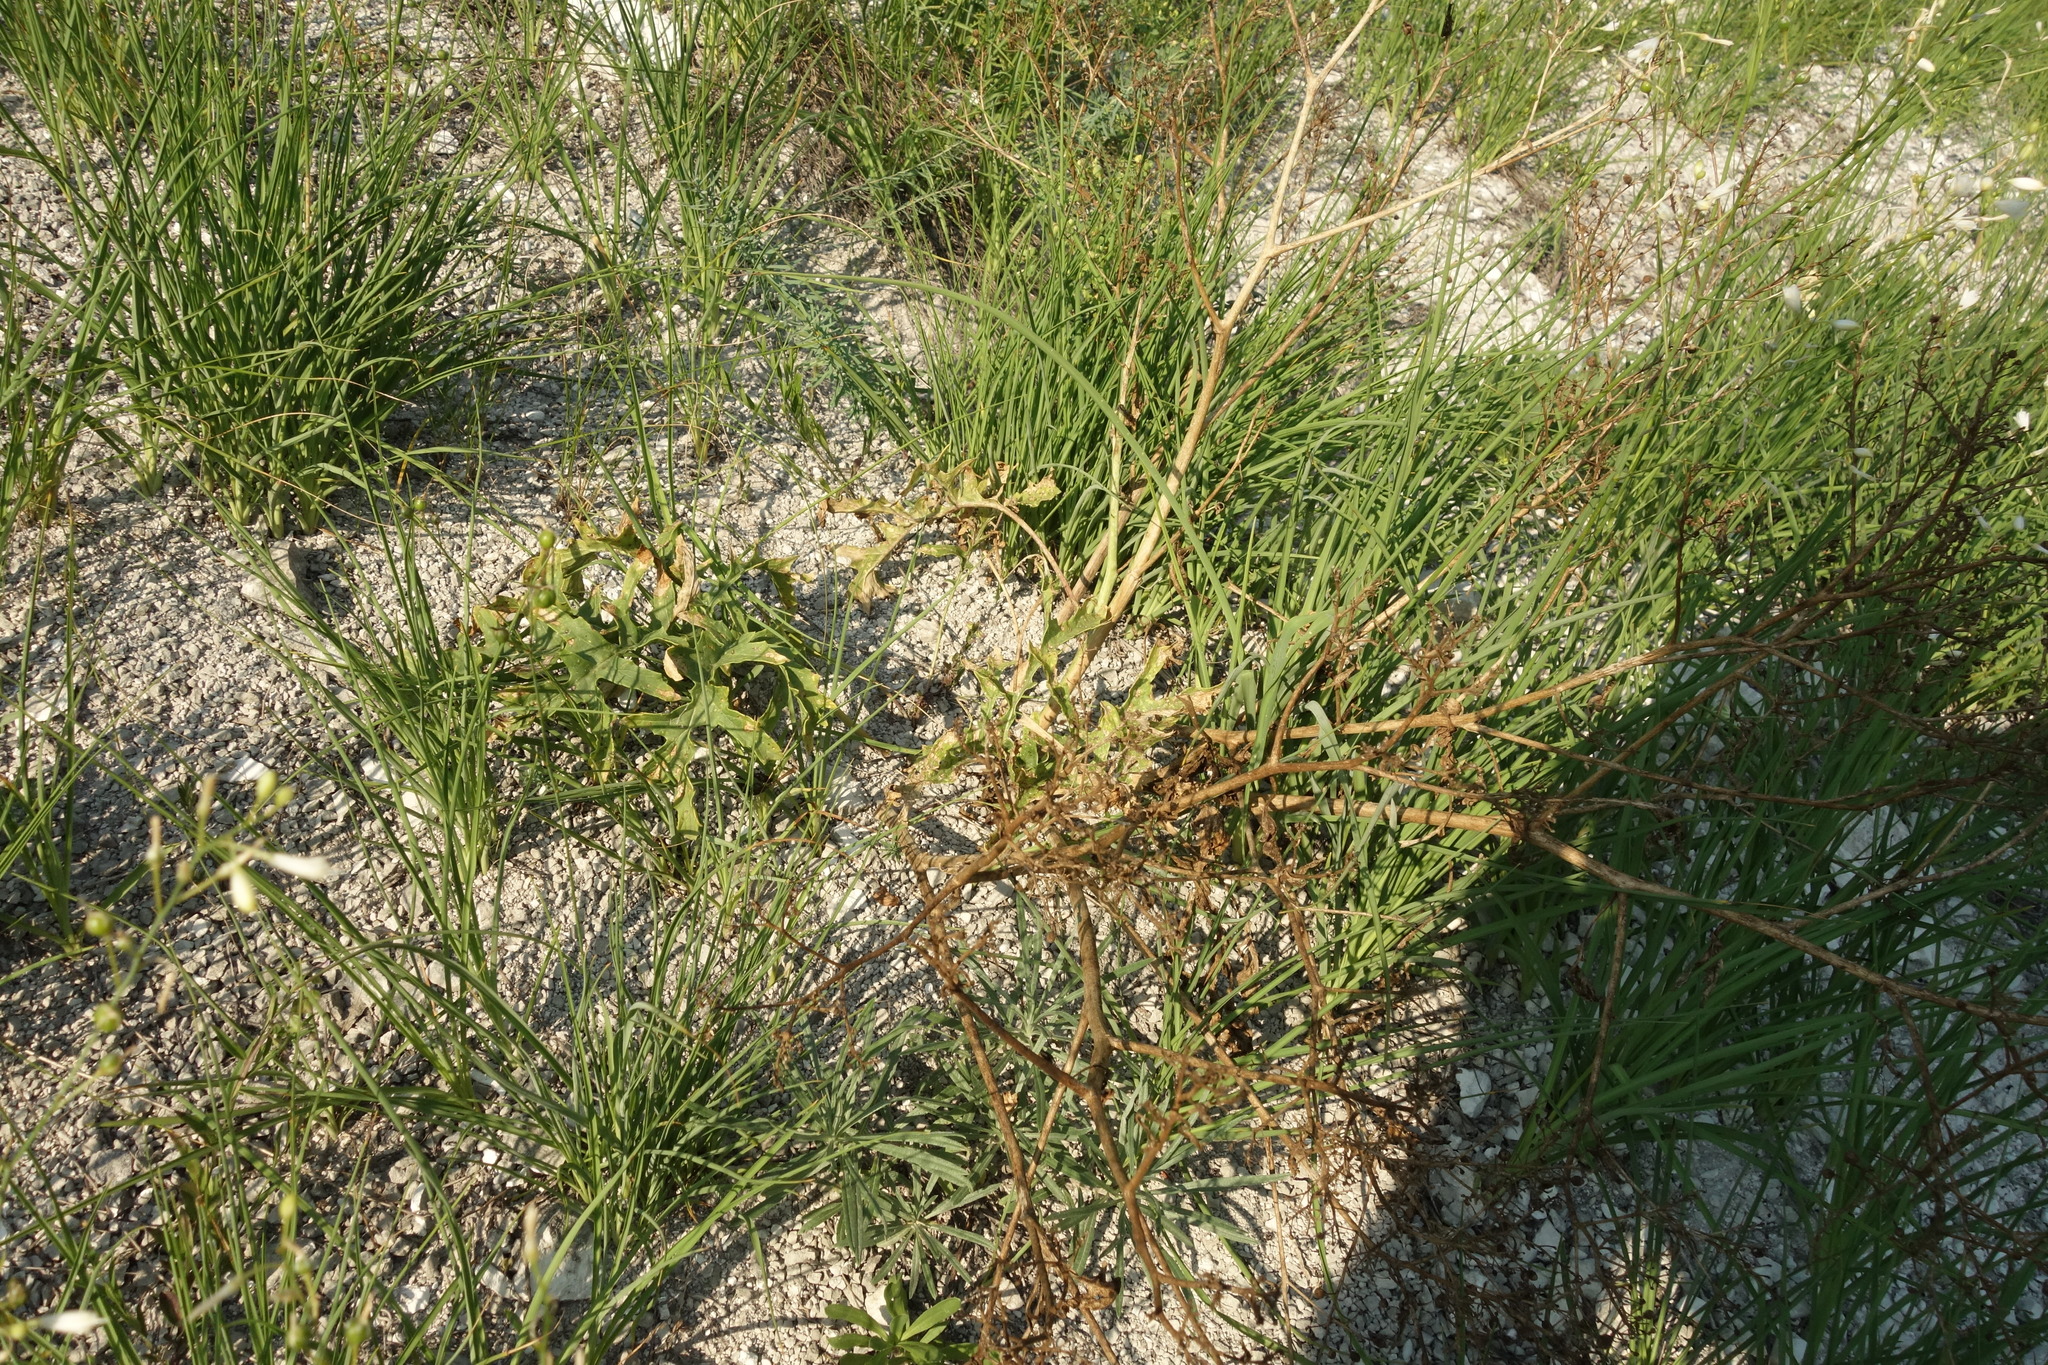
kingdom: Plantae
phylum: Tracheophyta
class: Magnoliopsida
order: Brassicales
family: Brassicaceae
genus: Crambe
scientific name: Crambe tataria
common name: Tartarian breadplant
